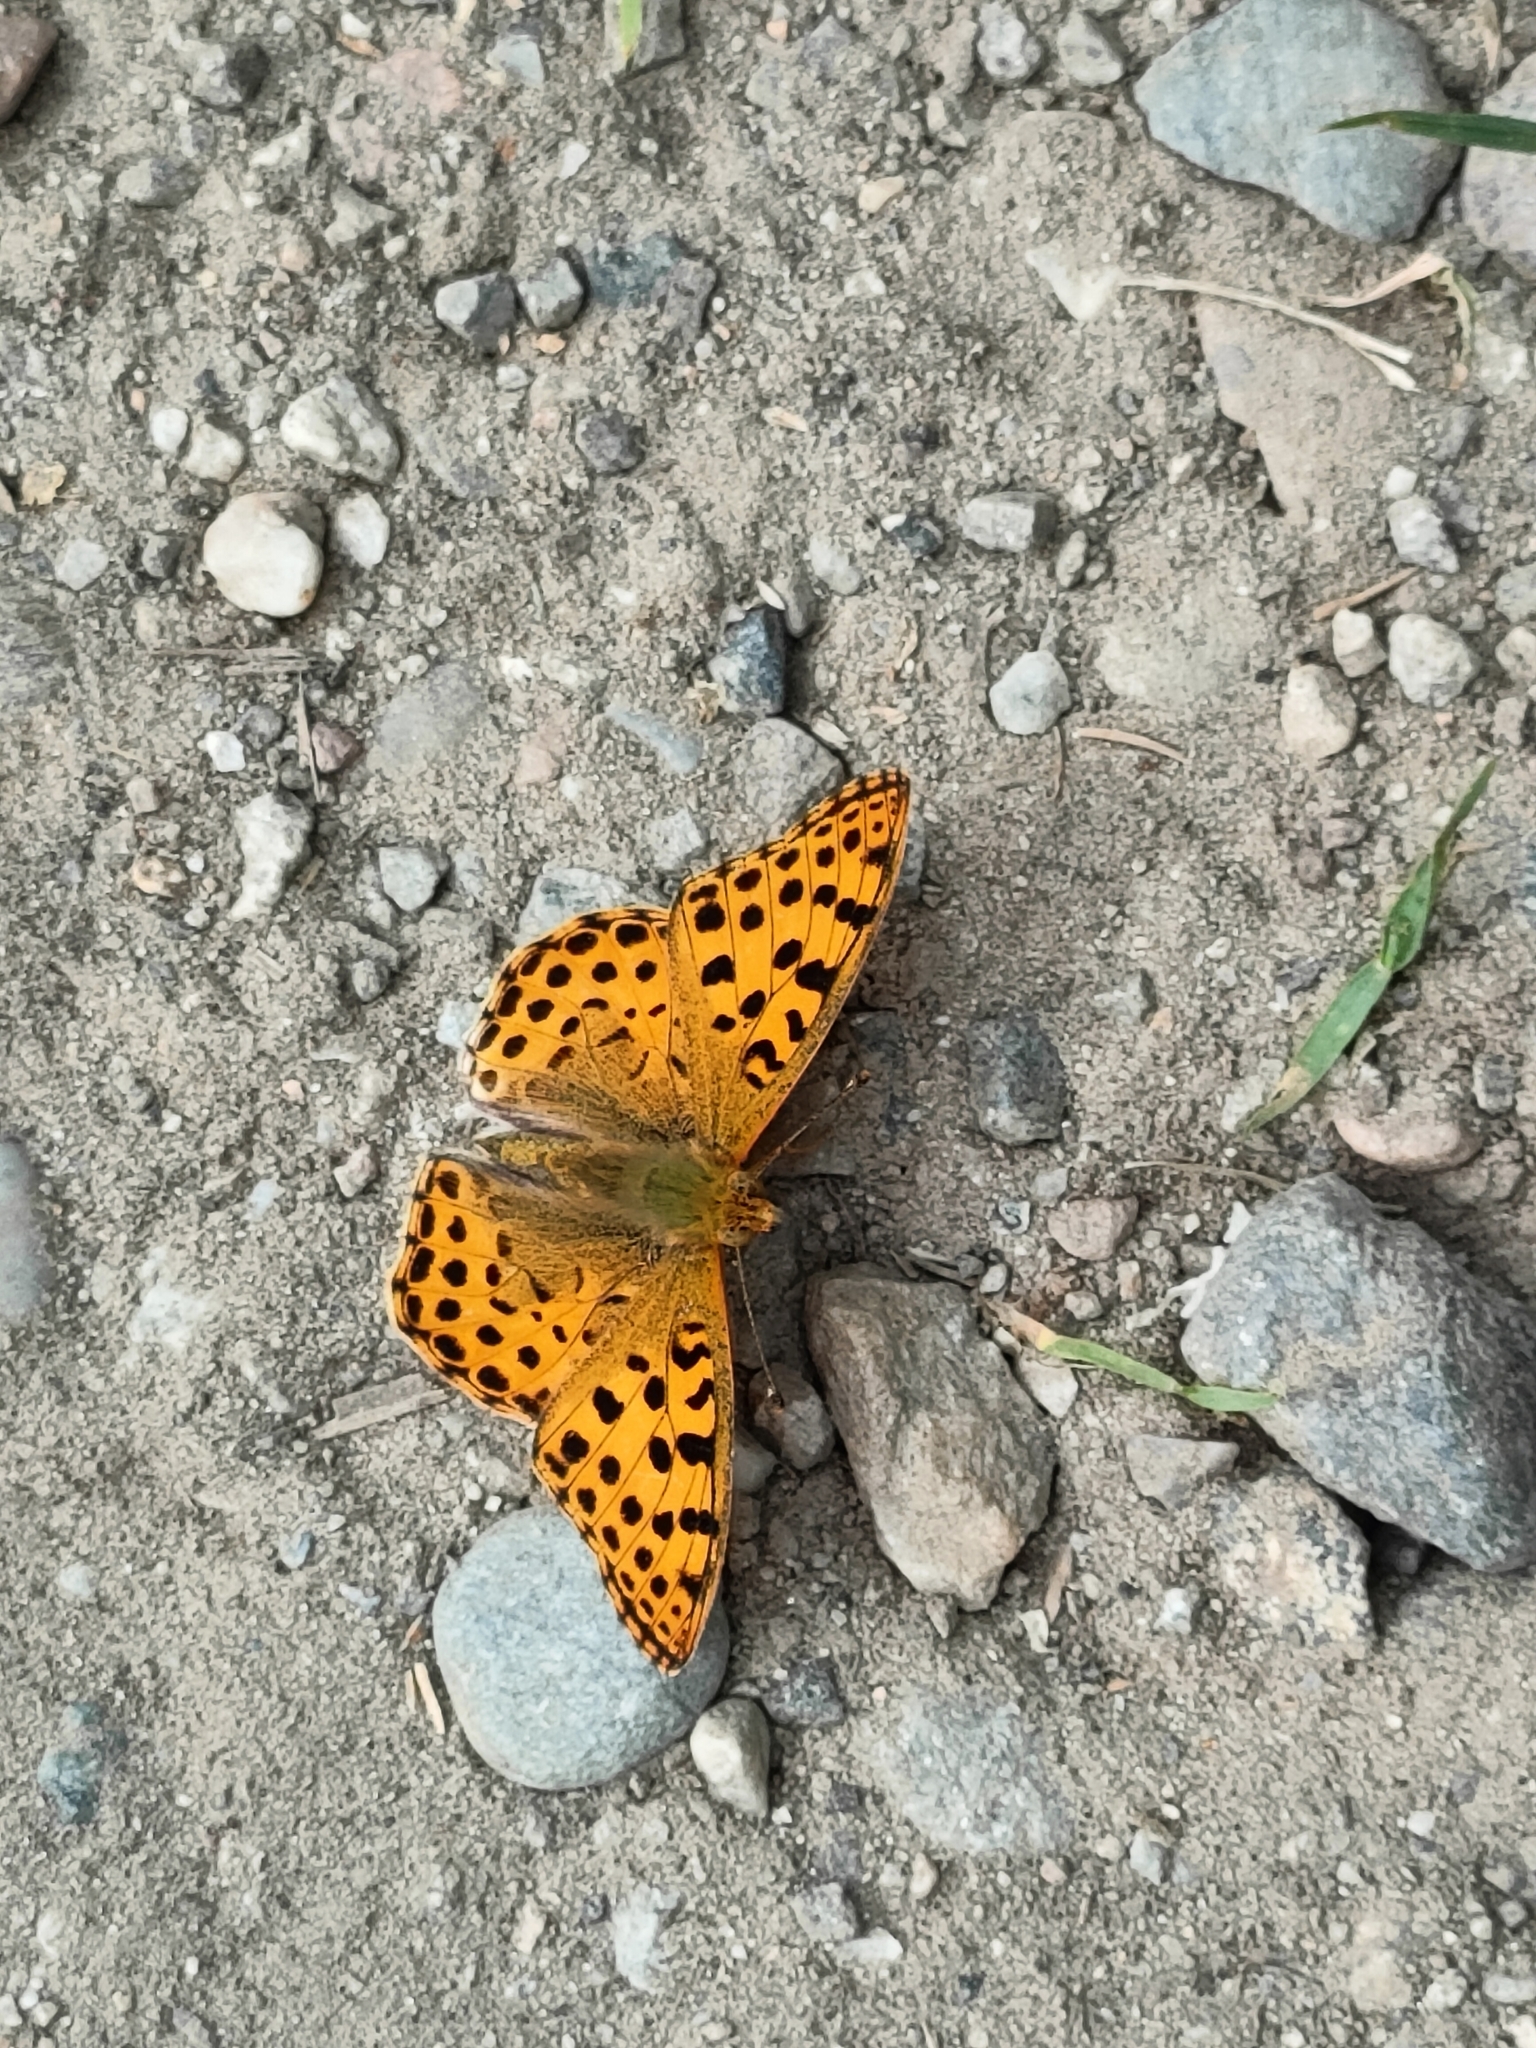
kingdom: Animalia
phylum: Arthropoda
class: Insecta
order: Lepidoptera
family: Nymphalidae
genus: Issoria
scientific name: Issoria lathonia
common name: Queen of spain fritillary
